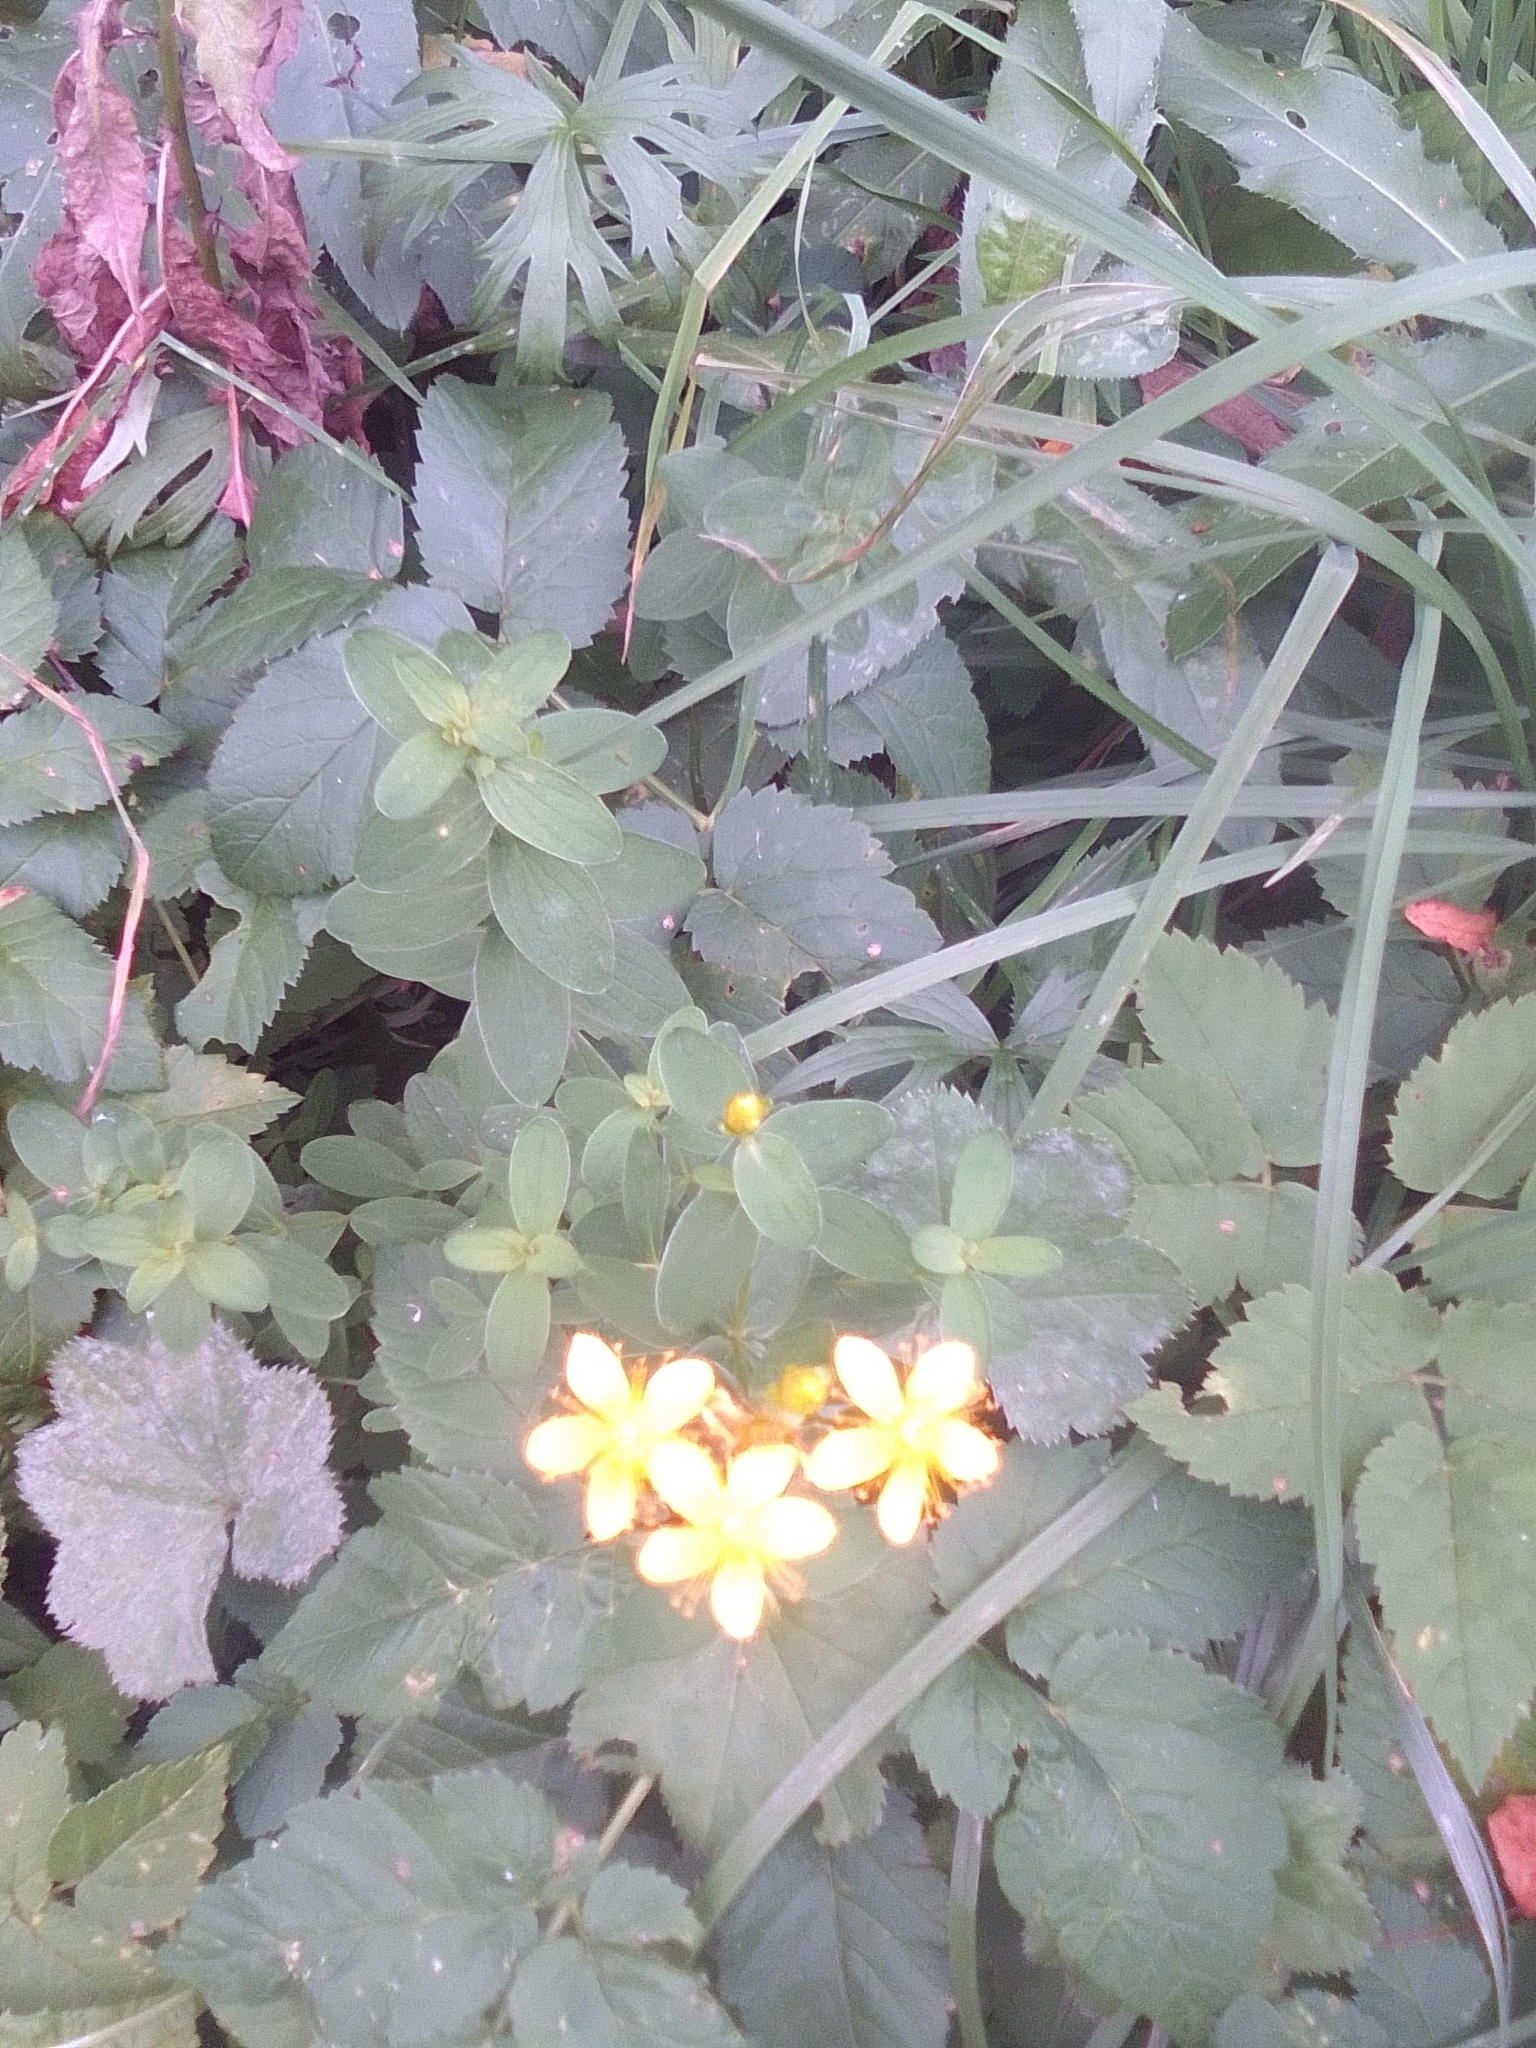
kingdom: Plantae
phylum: Tracheophyta
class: Magnoliopsida
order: Malpighiales
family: Hypericaceae
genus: Hypericum
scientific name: Hypericum maculatum
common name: Imperforate st. john's-wort
